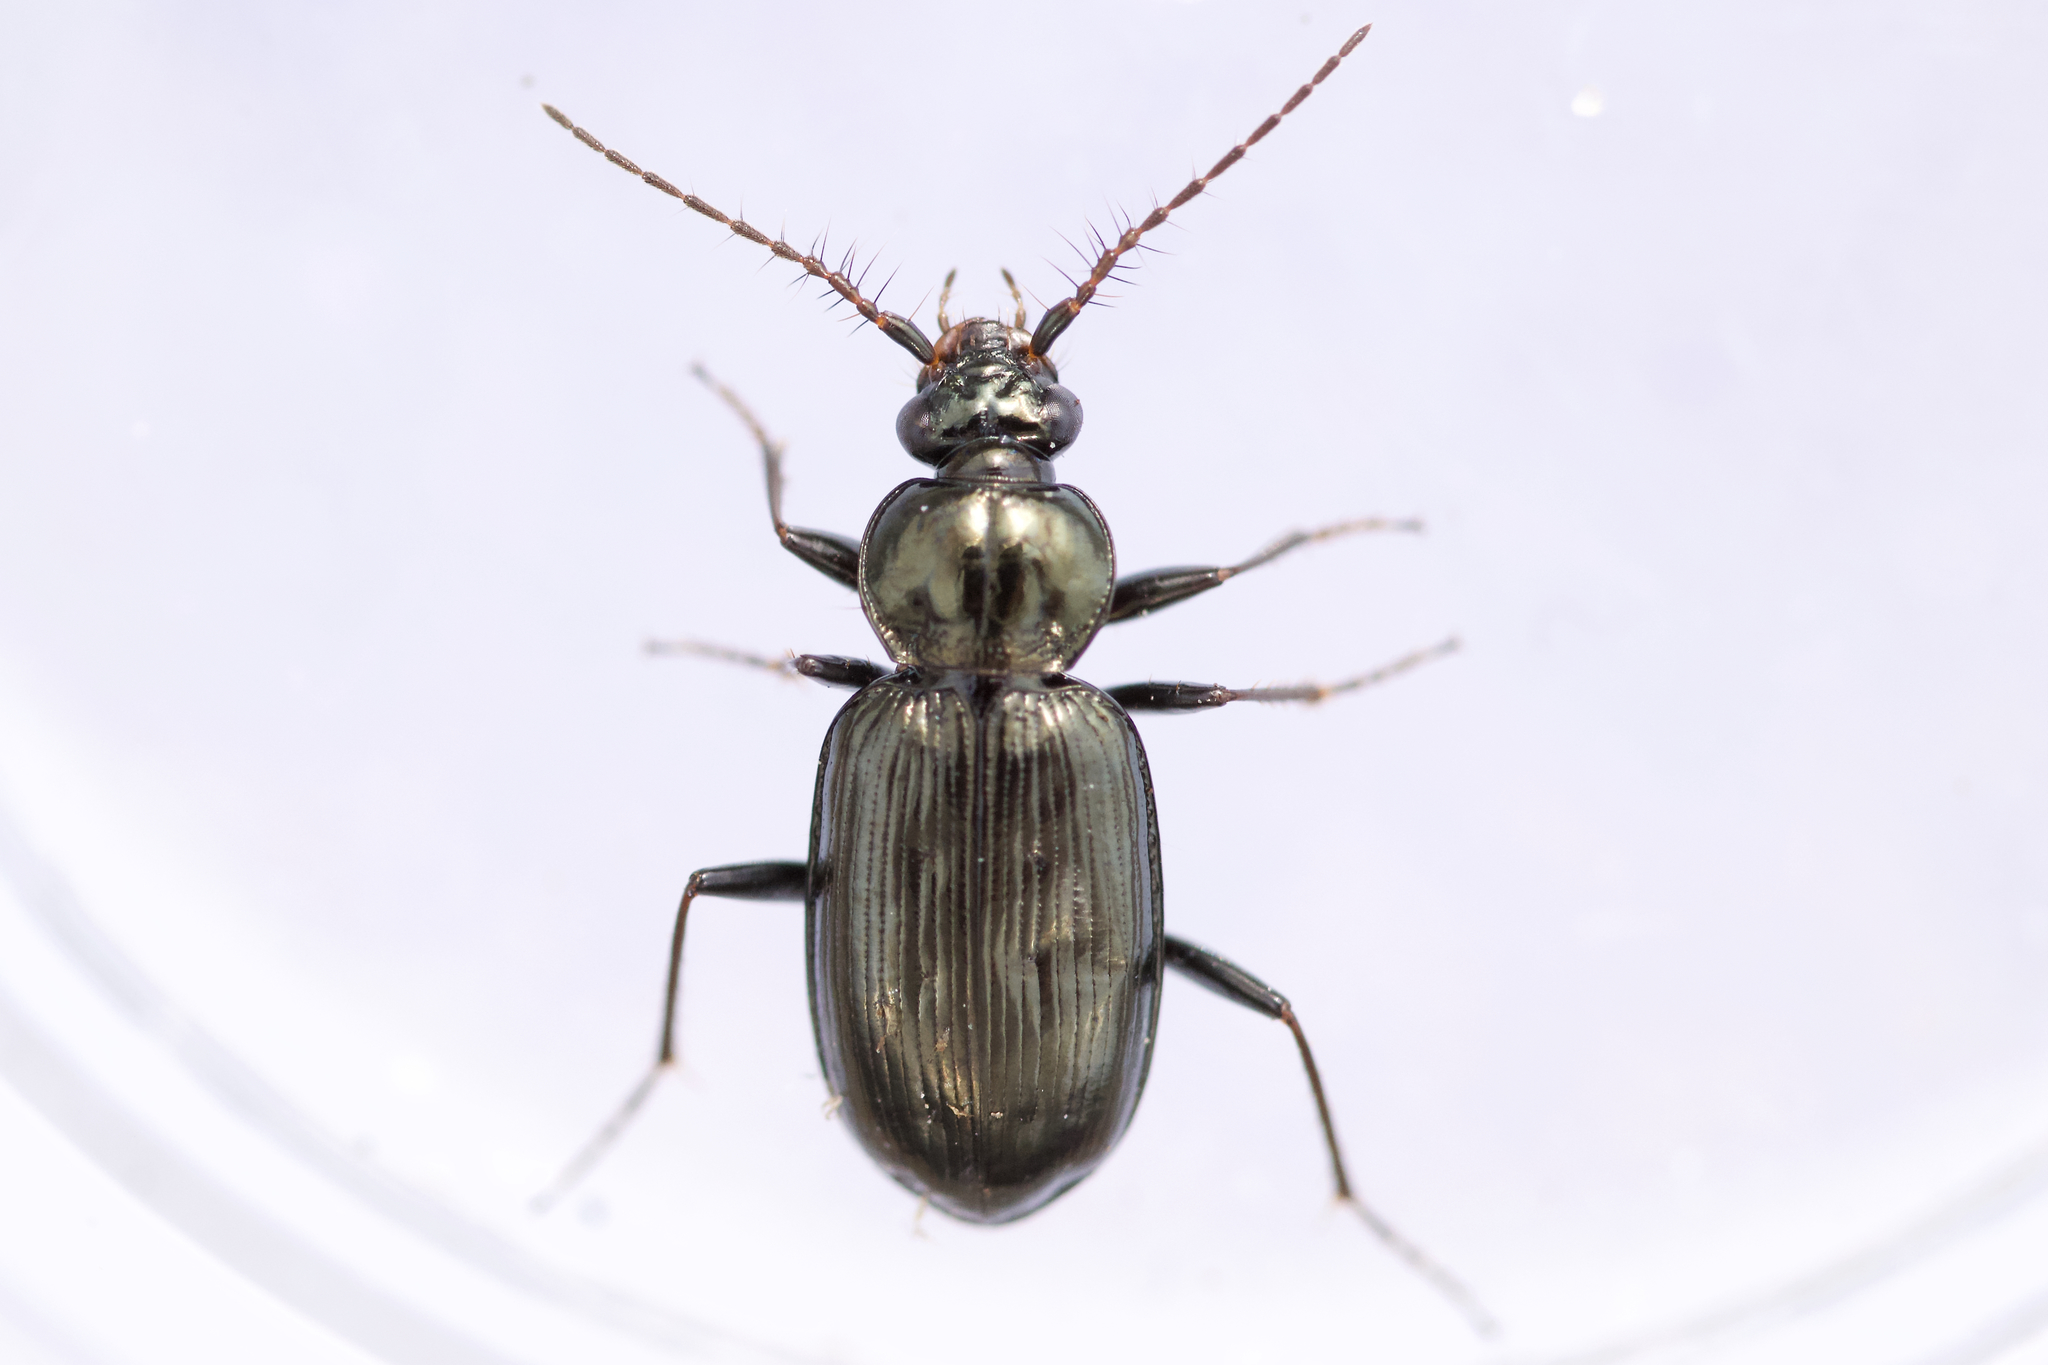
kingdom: Animalia
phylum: Arthropoda
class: Insecta
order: Coleoptera
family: Carabidae
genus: Loricera
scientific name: Loricera pilicornis
